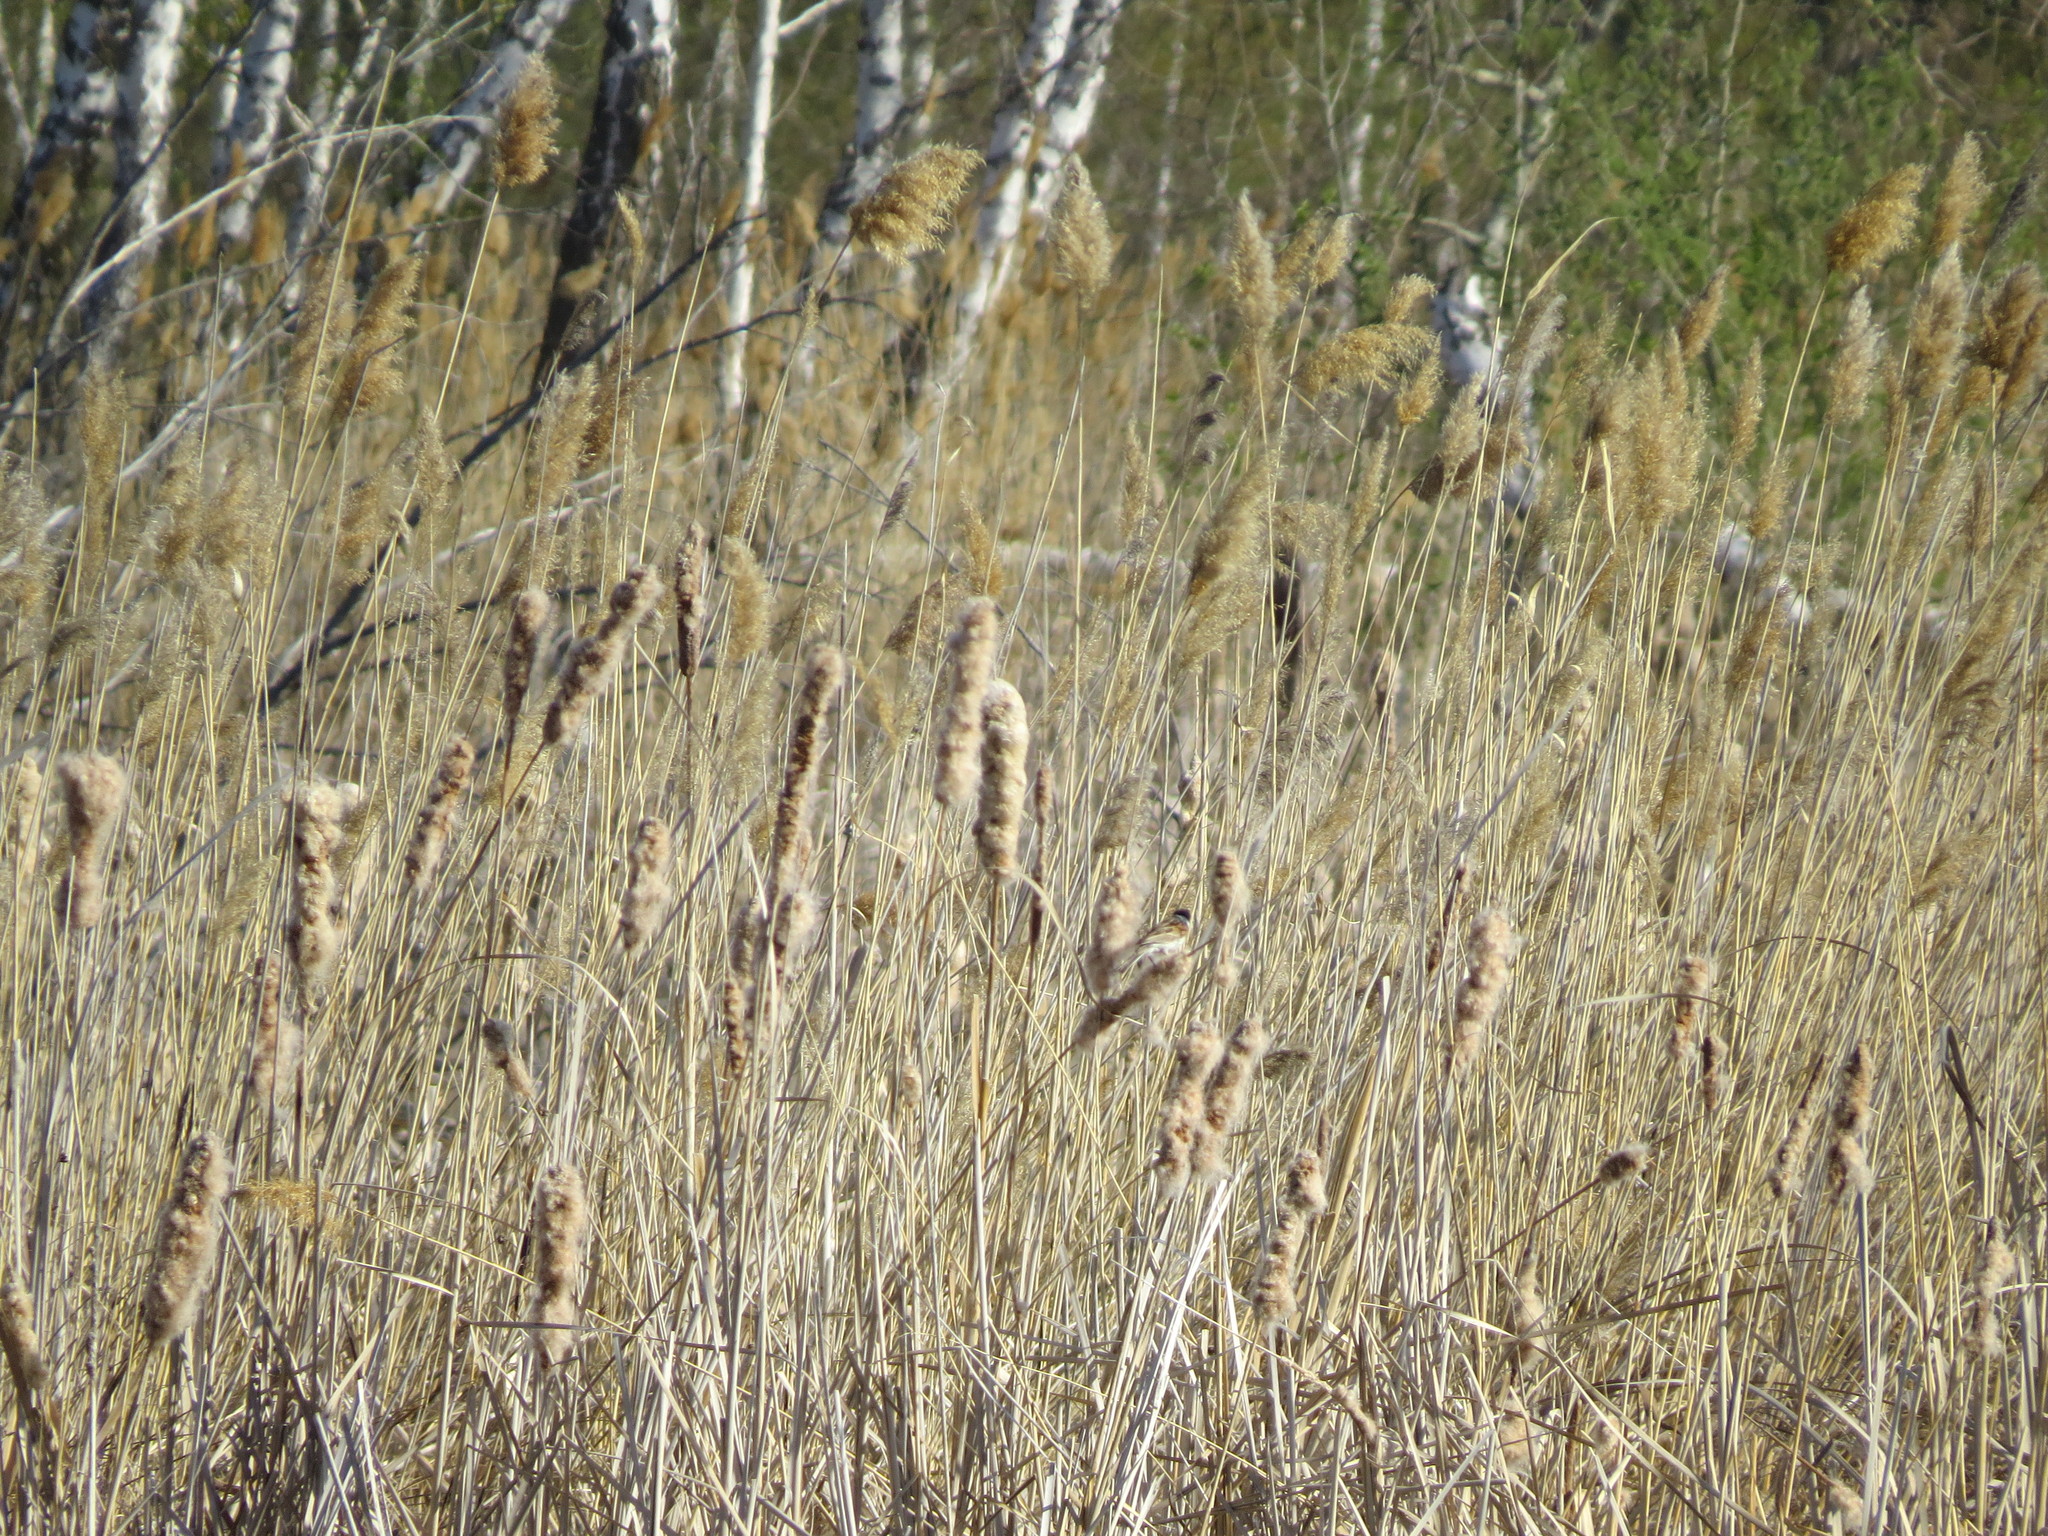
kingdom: Animalia
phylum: Chordata
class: Aves
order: Passeriformes
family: Emberizidae
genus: Emberiza
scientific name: Emberiza schoeniclus
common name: Reed bunting
